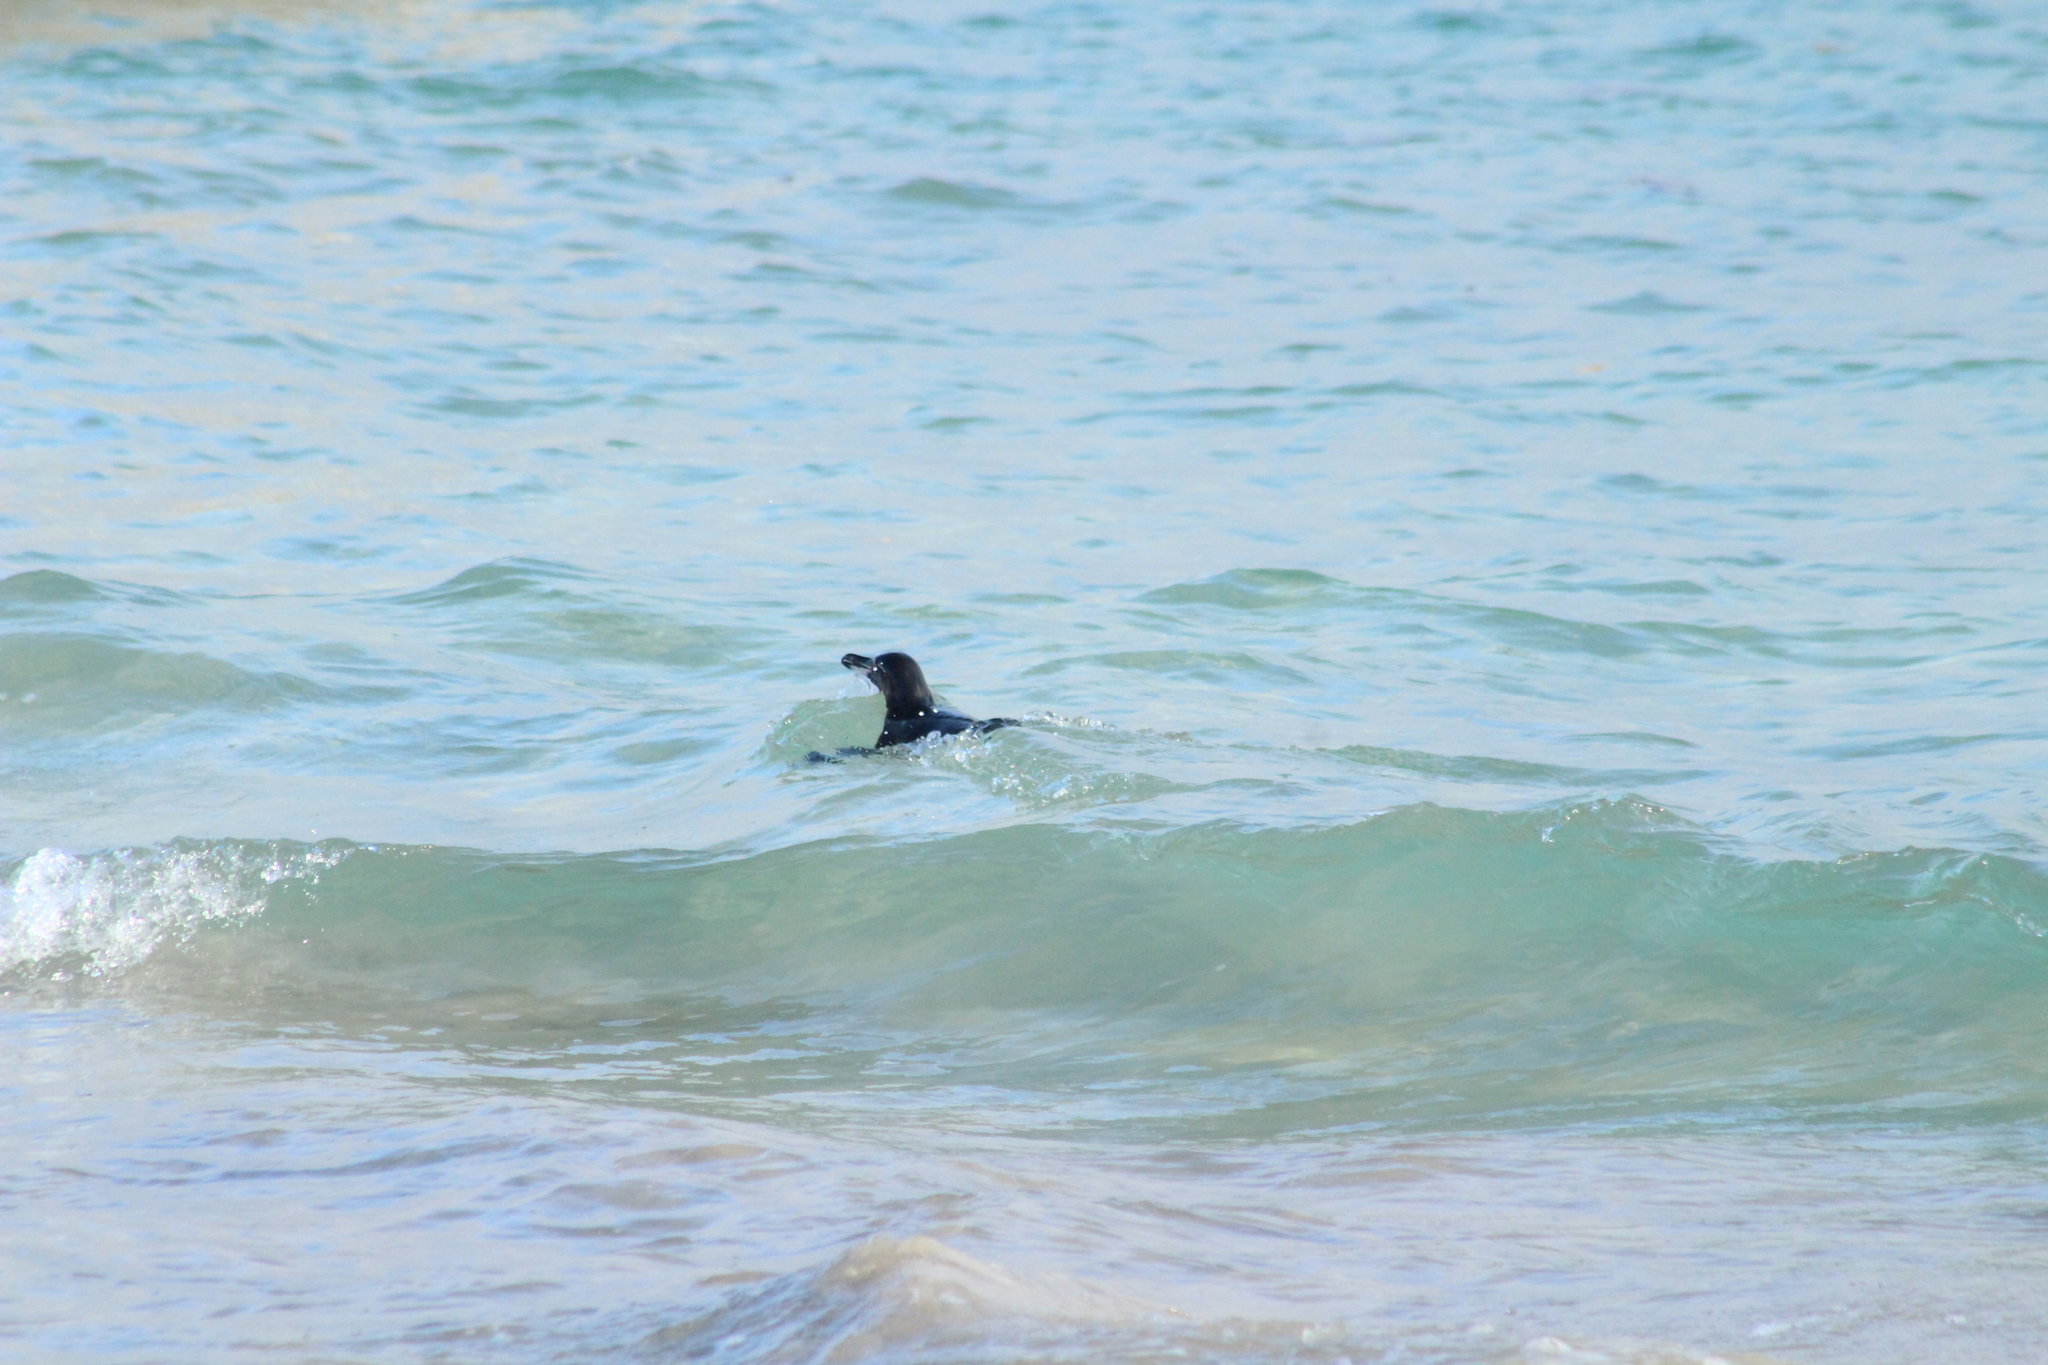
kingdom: Animalia
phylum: Chordata
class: Aves
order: Sphenisciformes
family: Spheniscidae
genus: Spheniscus
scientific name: Spheniscus mendiculus
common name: Galapagos penguin
